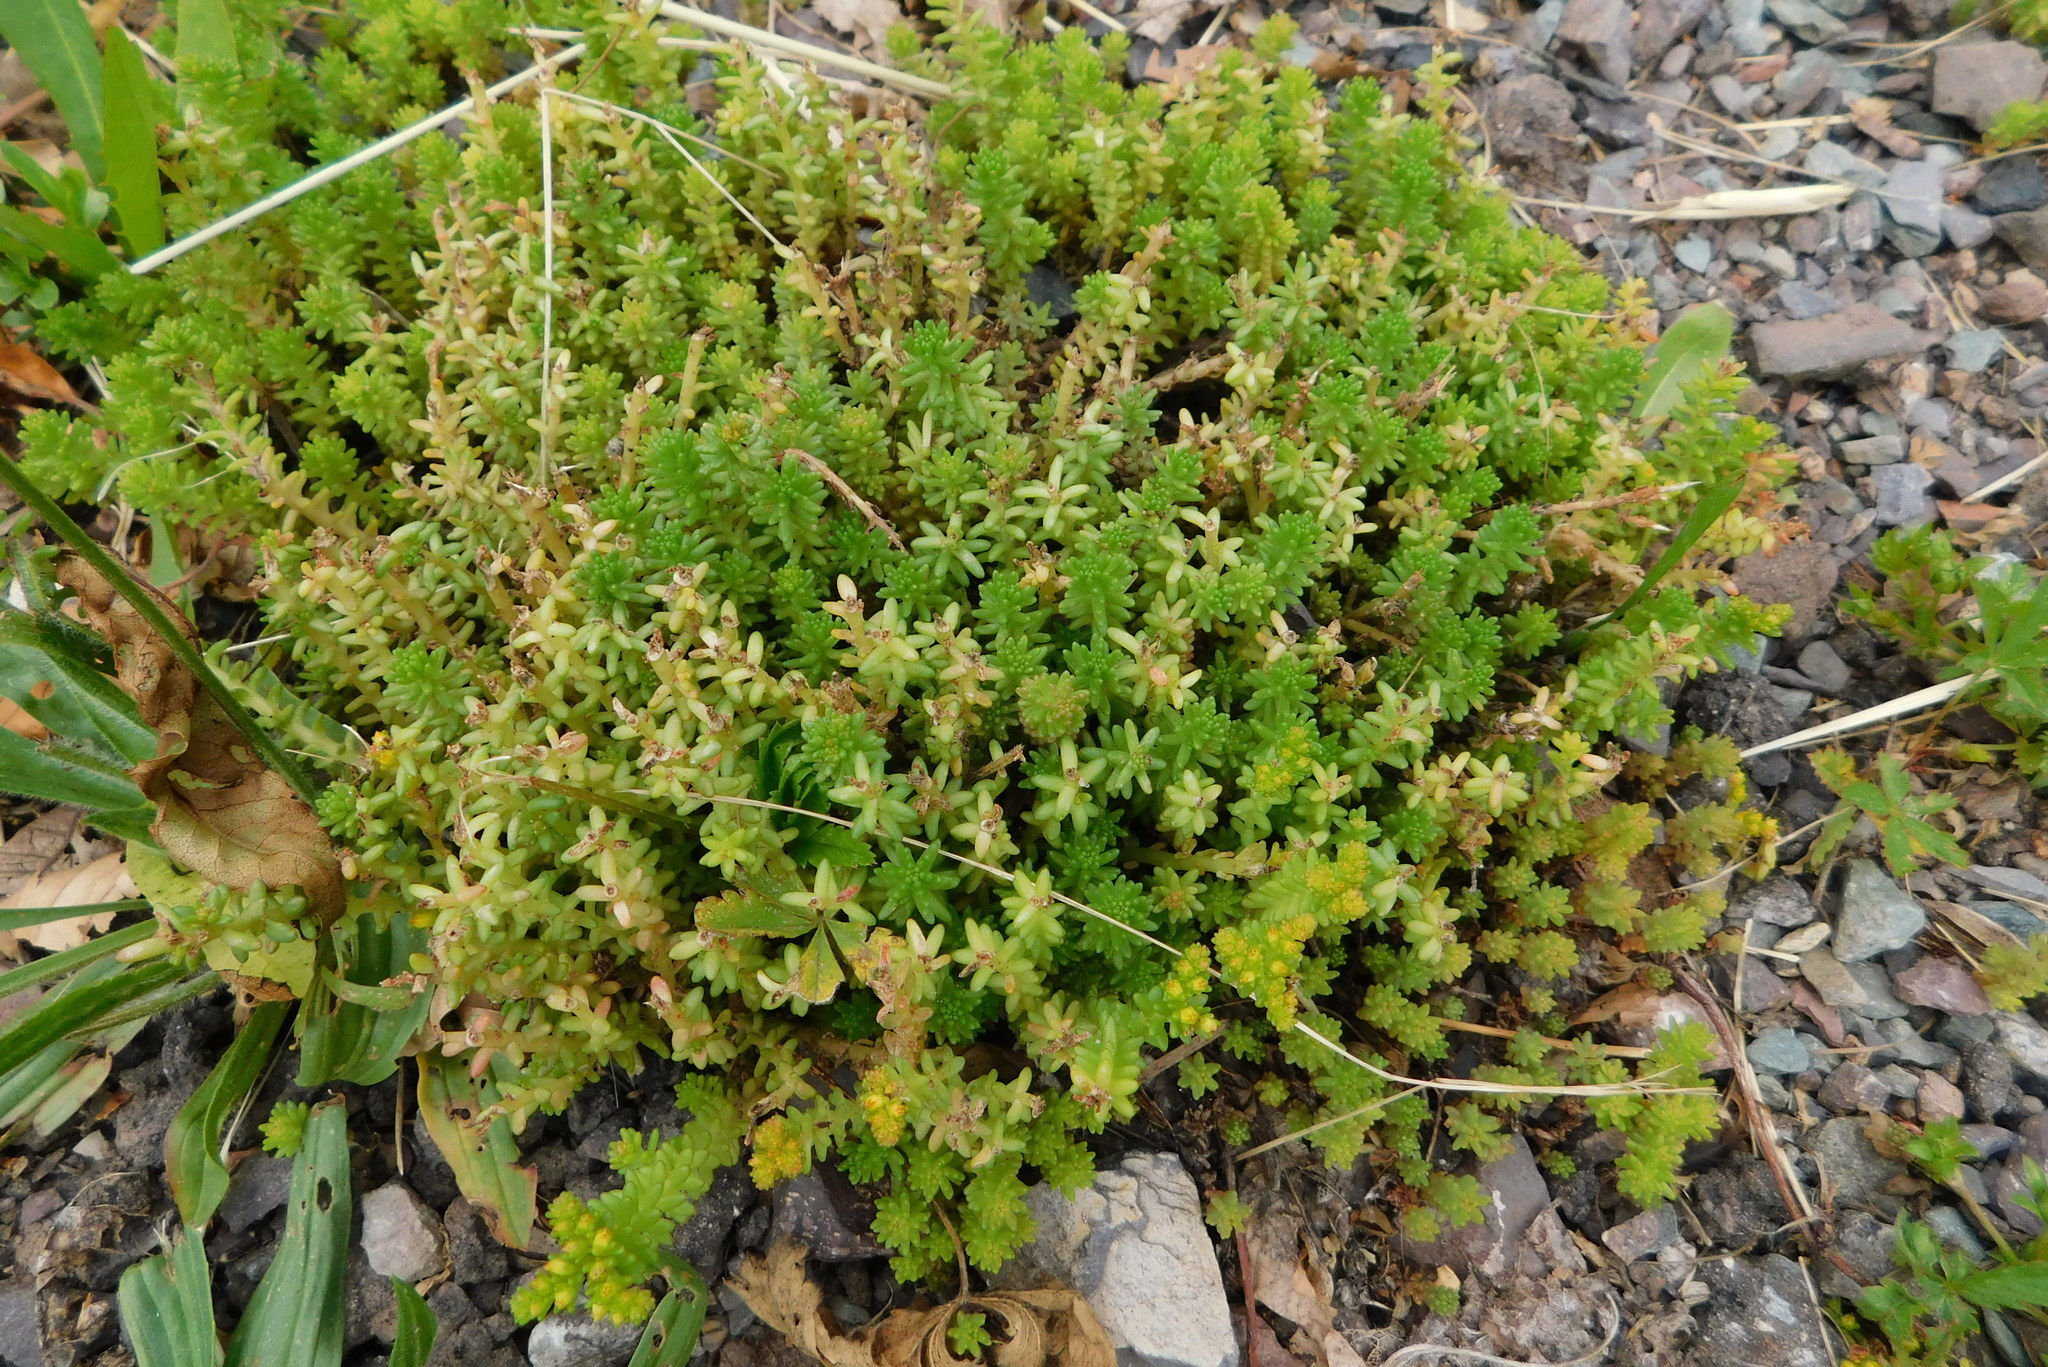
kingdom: Plantae
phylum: Tracheophyta
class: Magnoliopsida
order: Saxifragales
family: Crassulaceae
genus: Sedum
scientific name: Sedum sexangulare
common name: Tasteless stonecrop
